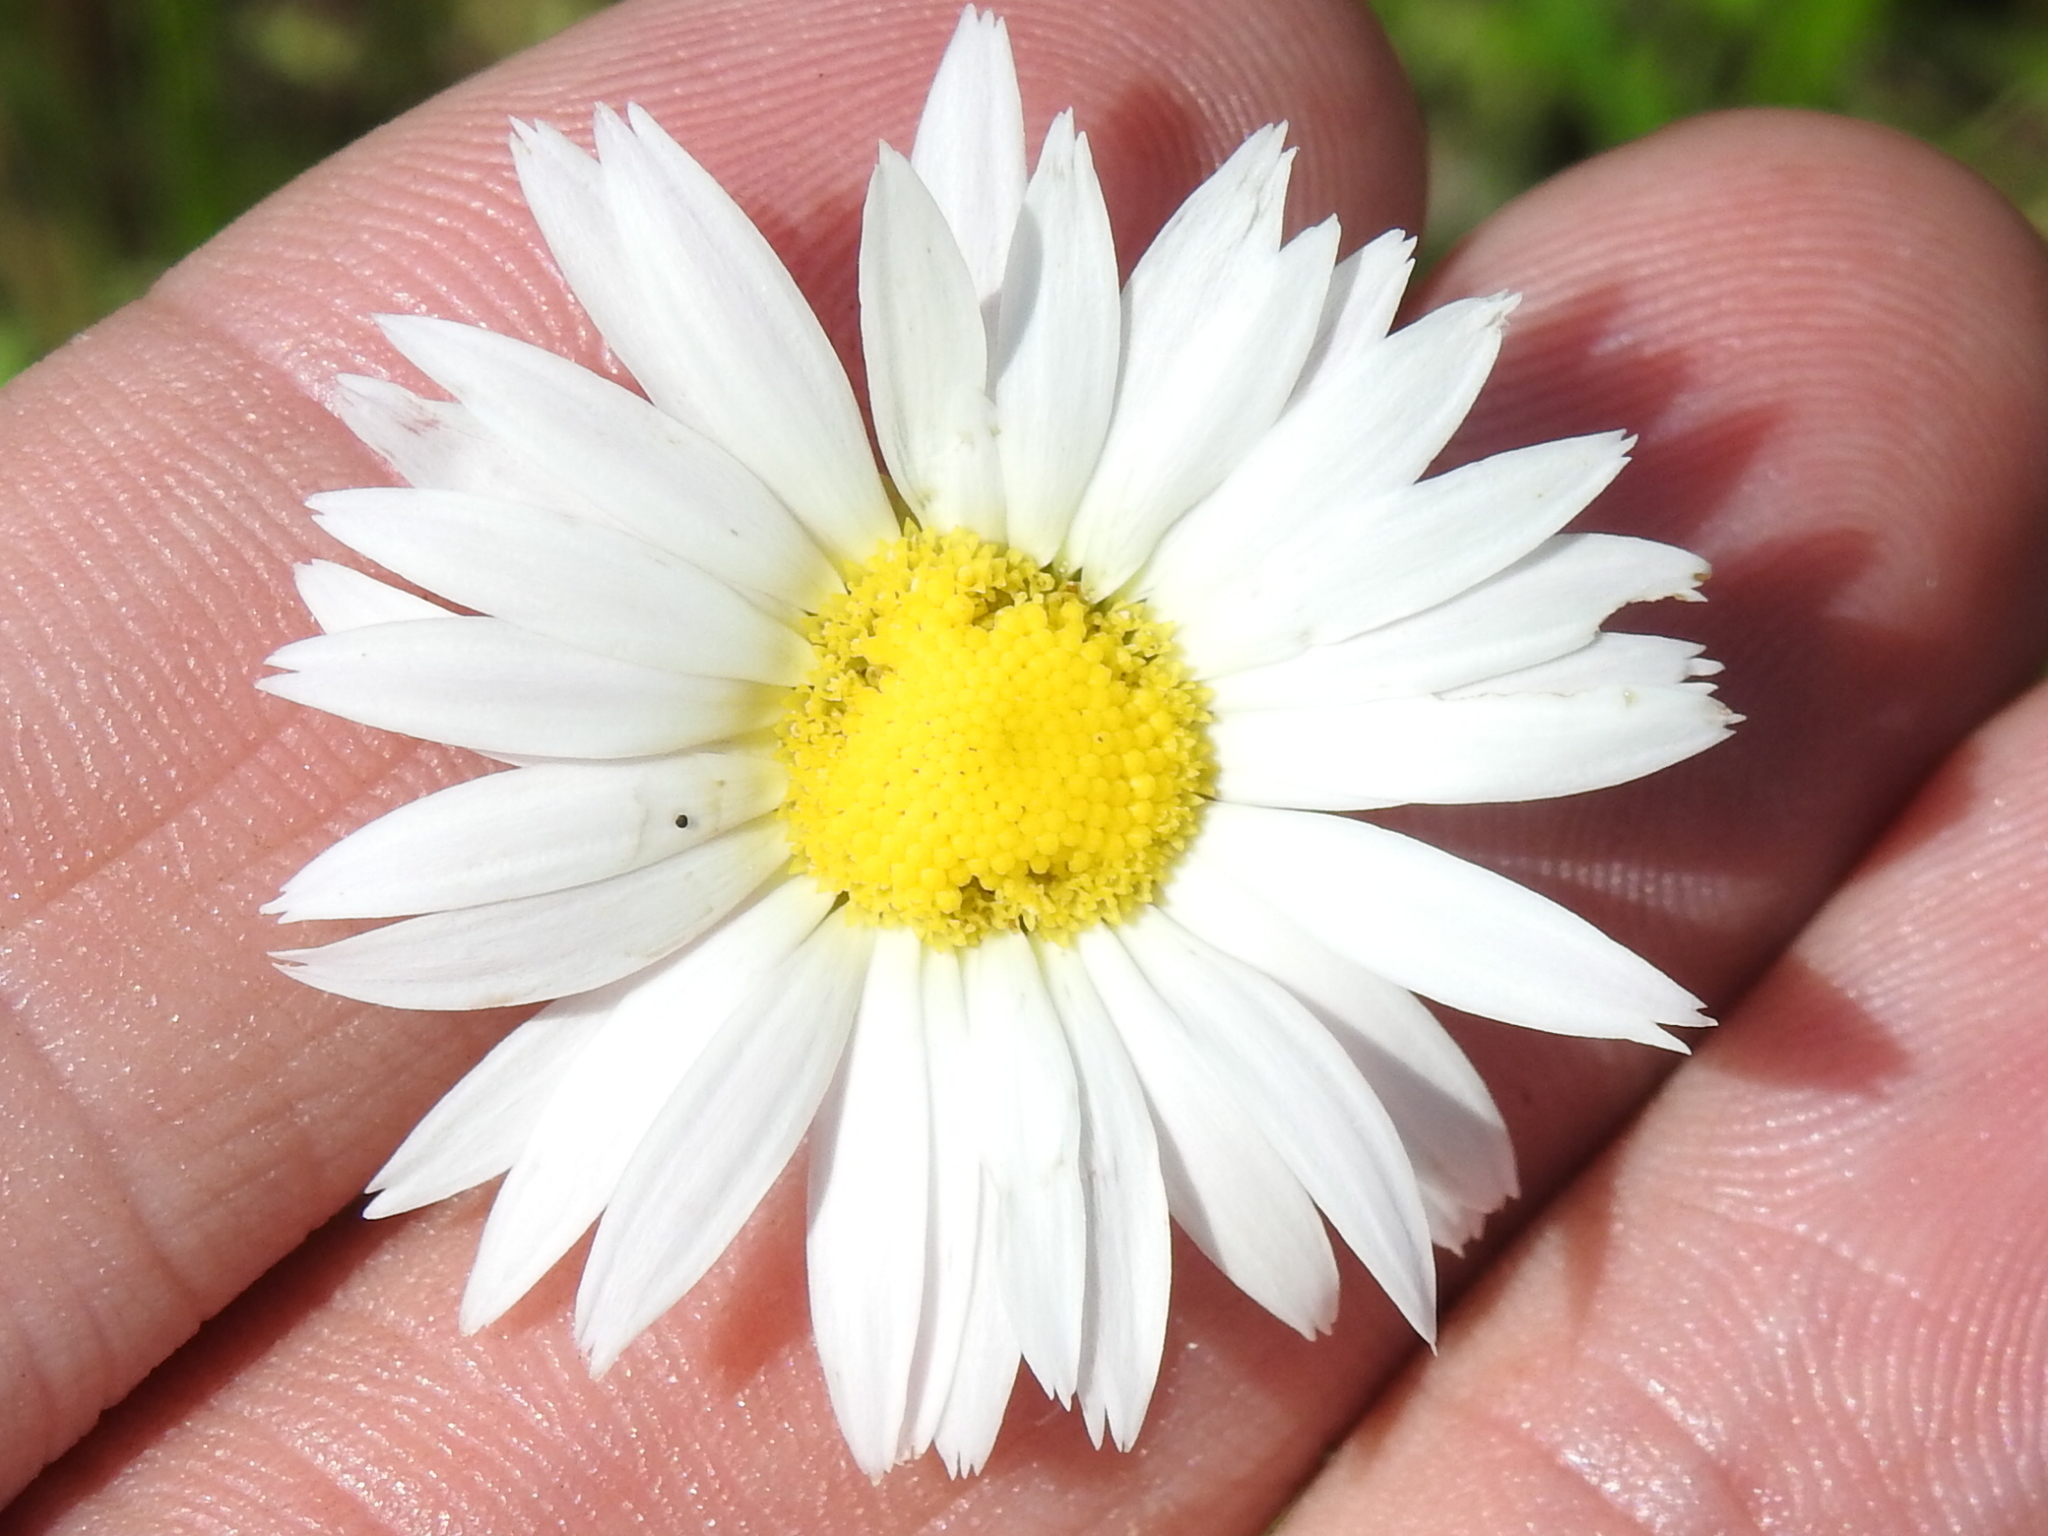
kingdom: Plantae
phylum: Tracheophyta
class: Magnoliopsida
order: Asterales
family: Asteraceae
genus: Aphanostephus
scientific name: Aphanostephus ramosissimus
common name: Plains lazy daisy
